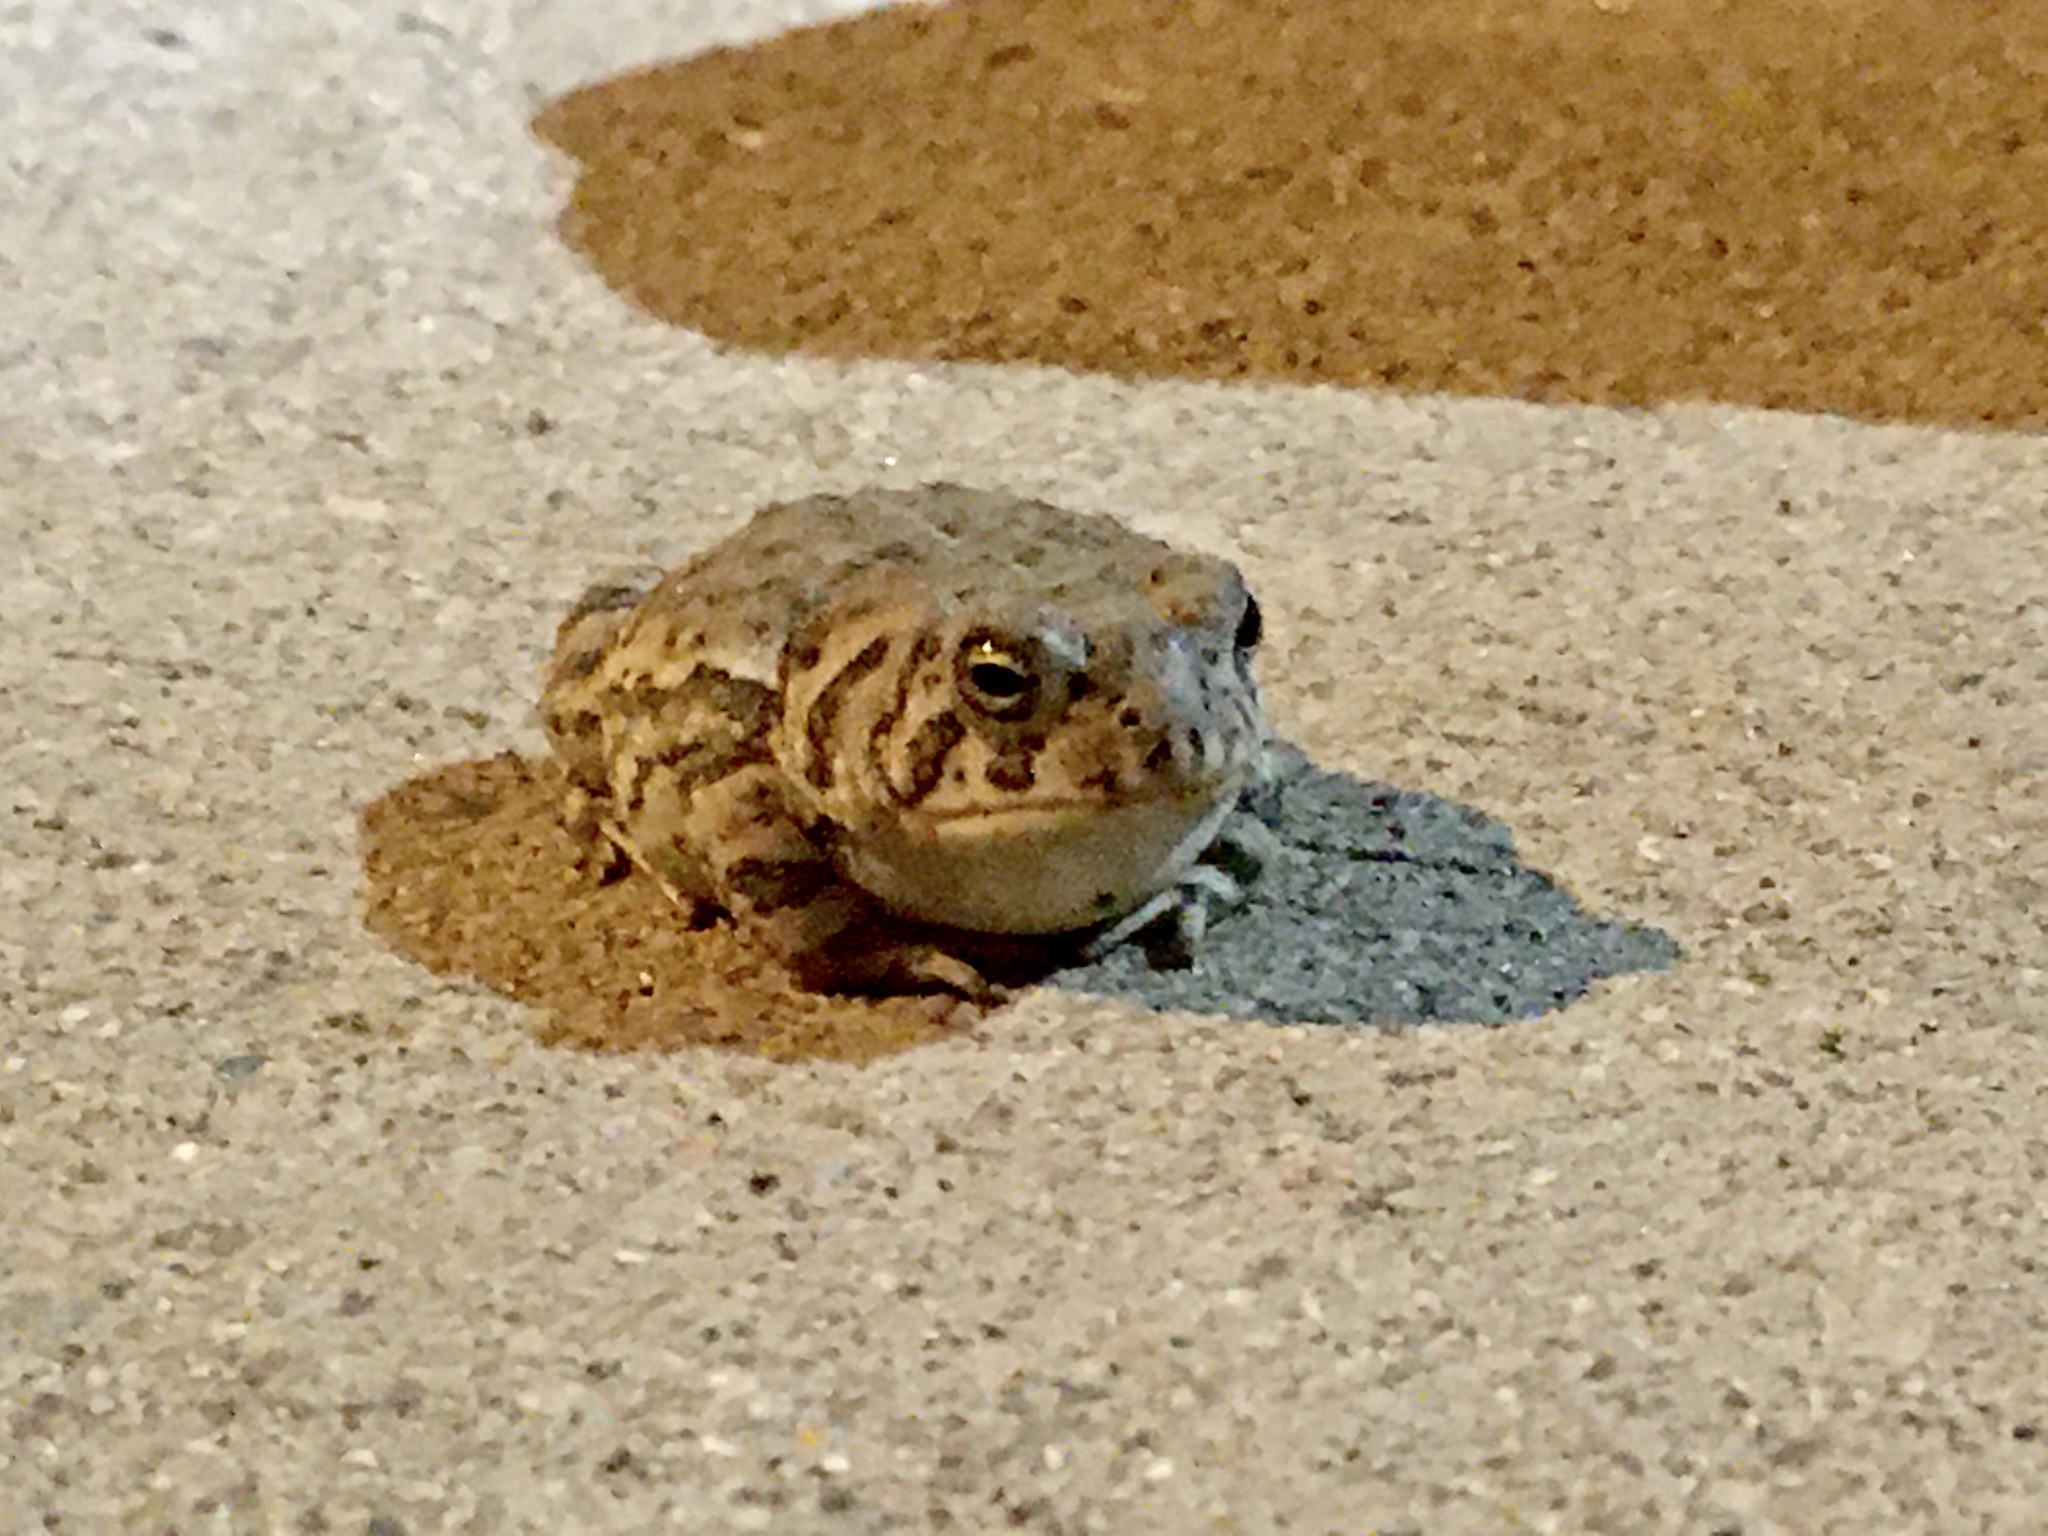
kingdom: Animalia
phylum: Chordata
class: Amphibia
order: Anura
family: Bufonidae
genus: Anaxyrus
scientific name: Anaxyrus woodhousii
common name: Woodhouse's toad
